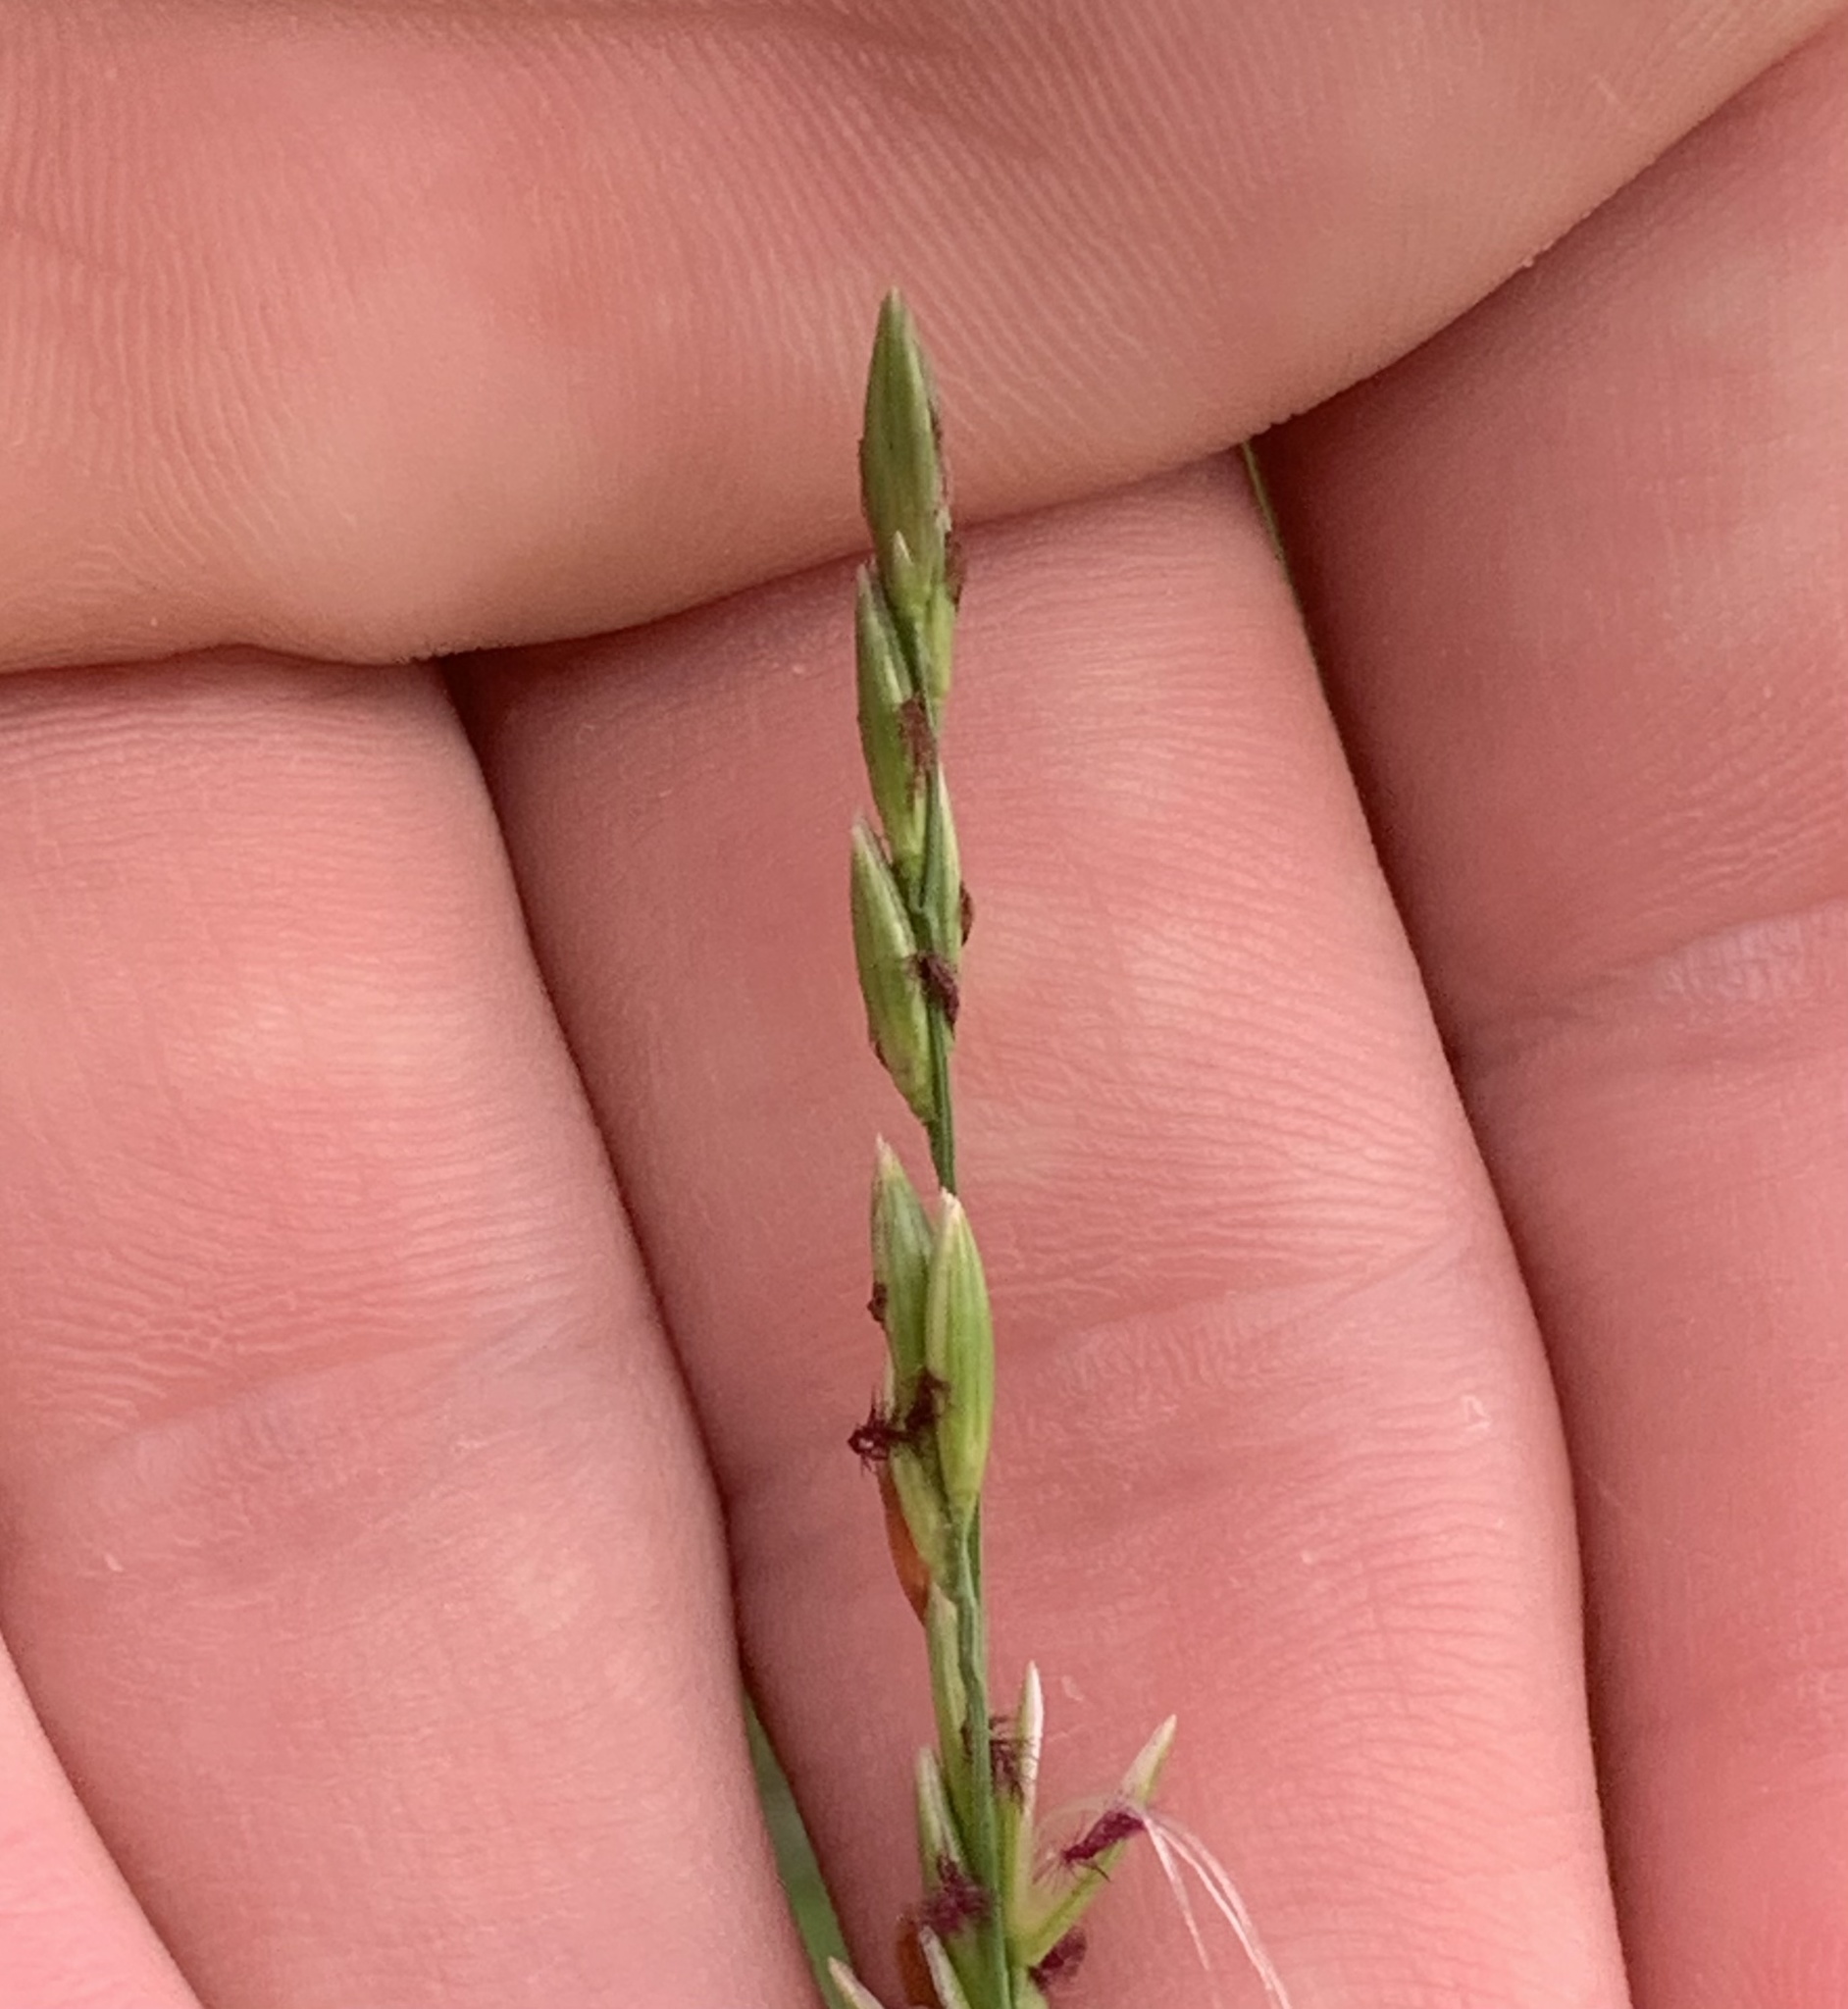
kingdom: Plantae
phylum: Tracheophyta
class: Liliopsida
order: Poales
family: Poaceae
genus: Amphicarpum
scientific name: Amphicarpum muehlenbergianum
